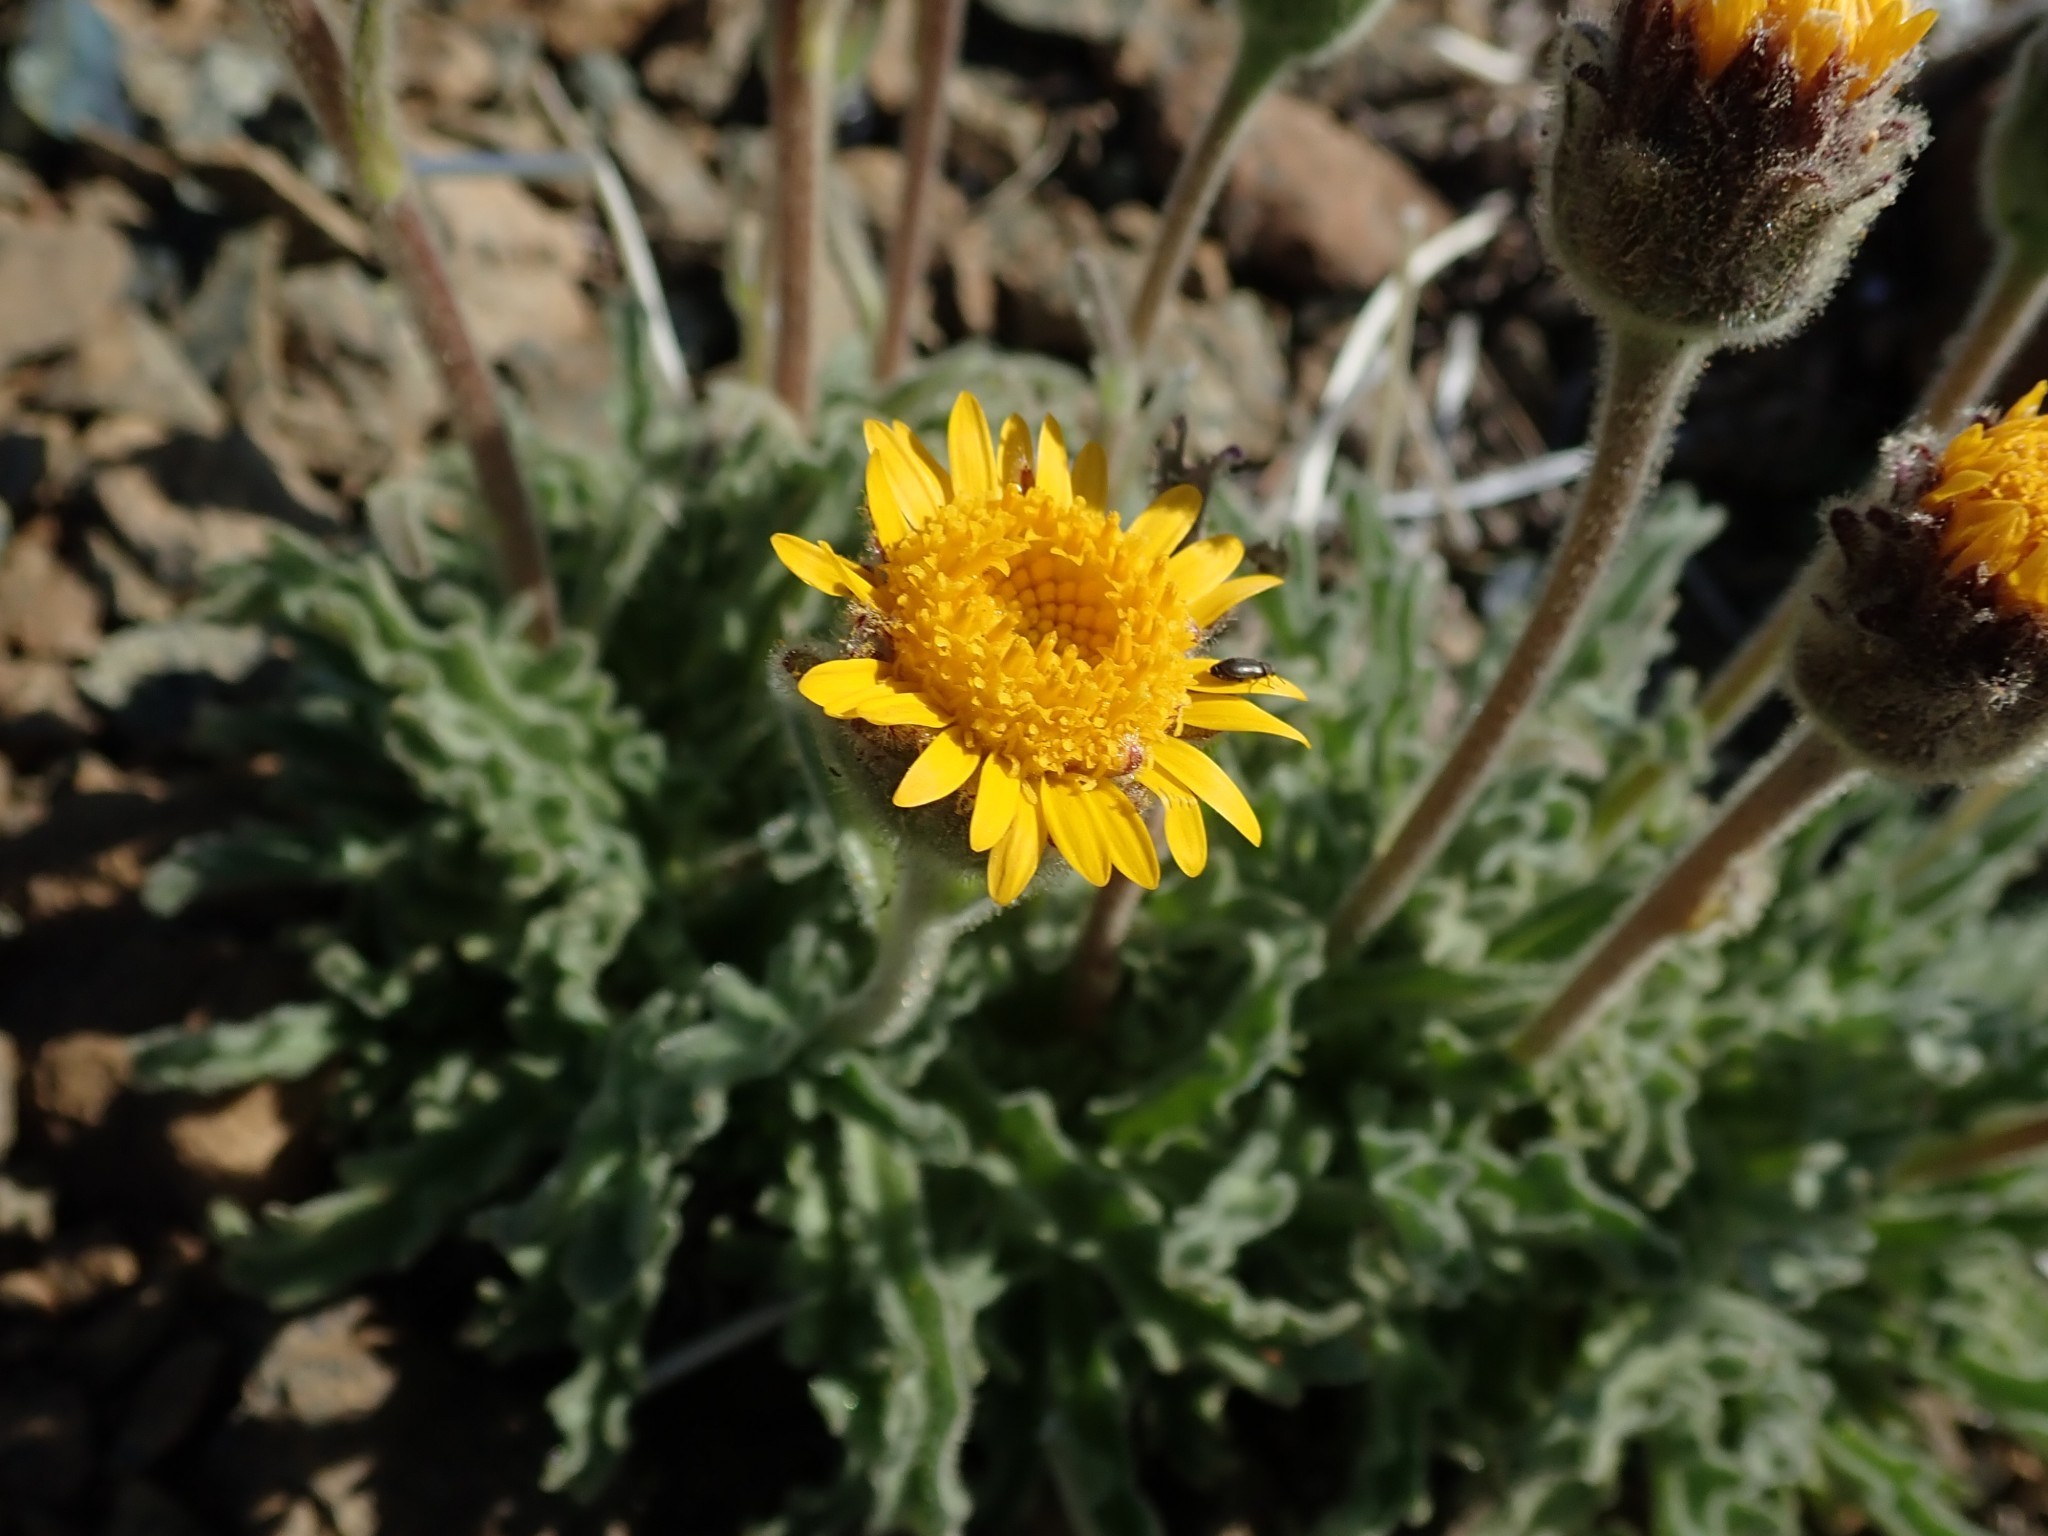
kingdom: Plantae
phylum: Tracheophyta
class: Magnoliopsida
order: Asterales
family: Asteraceae
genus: Hulsea
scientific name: Hulsea nana
